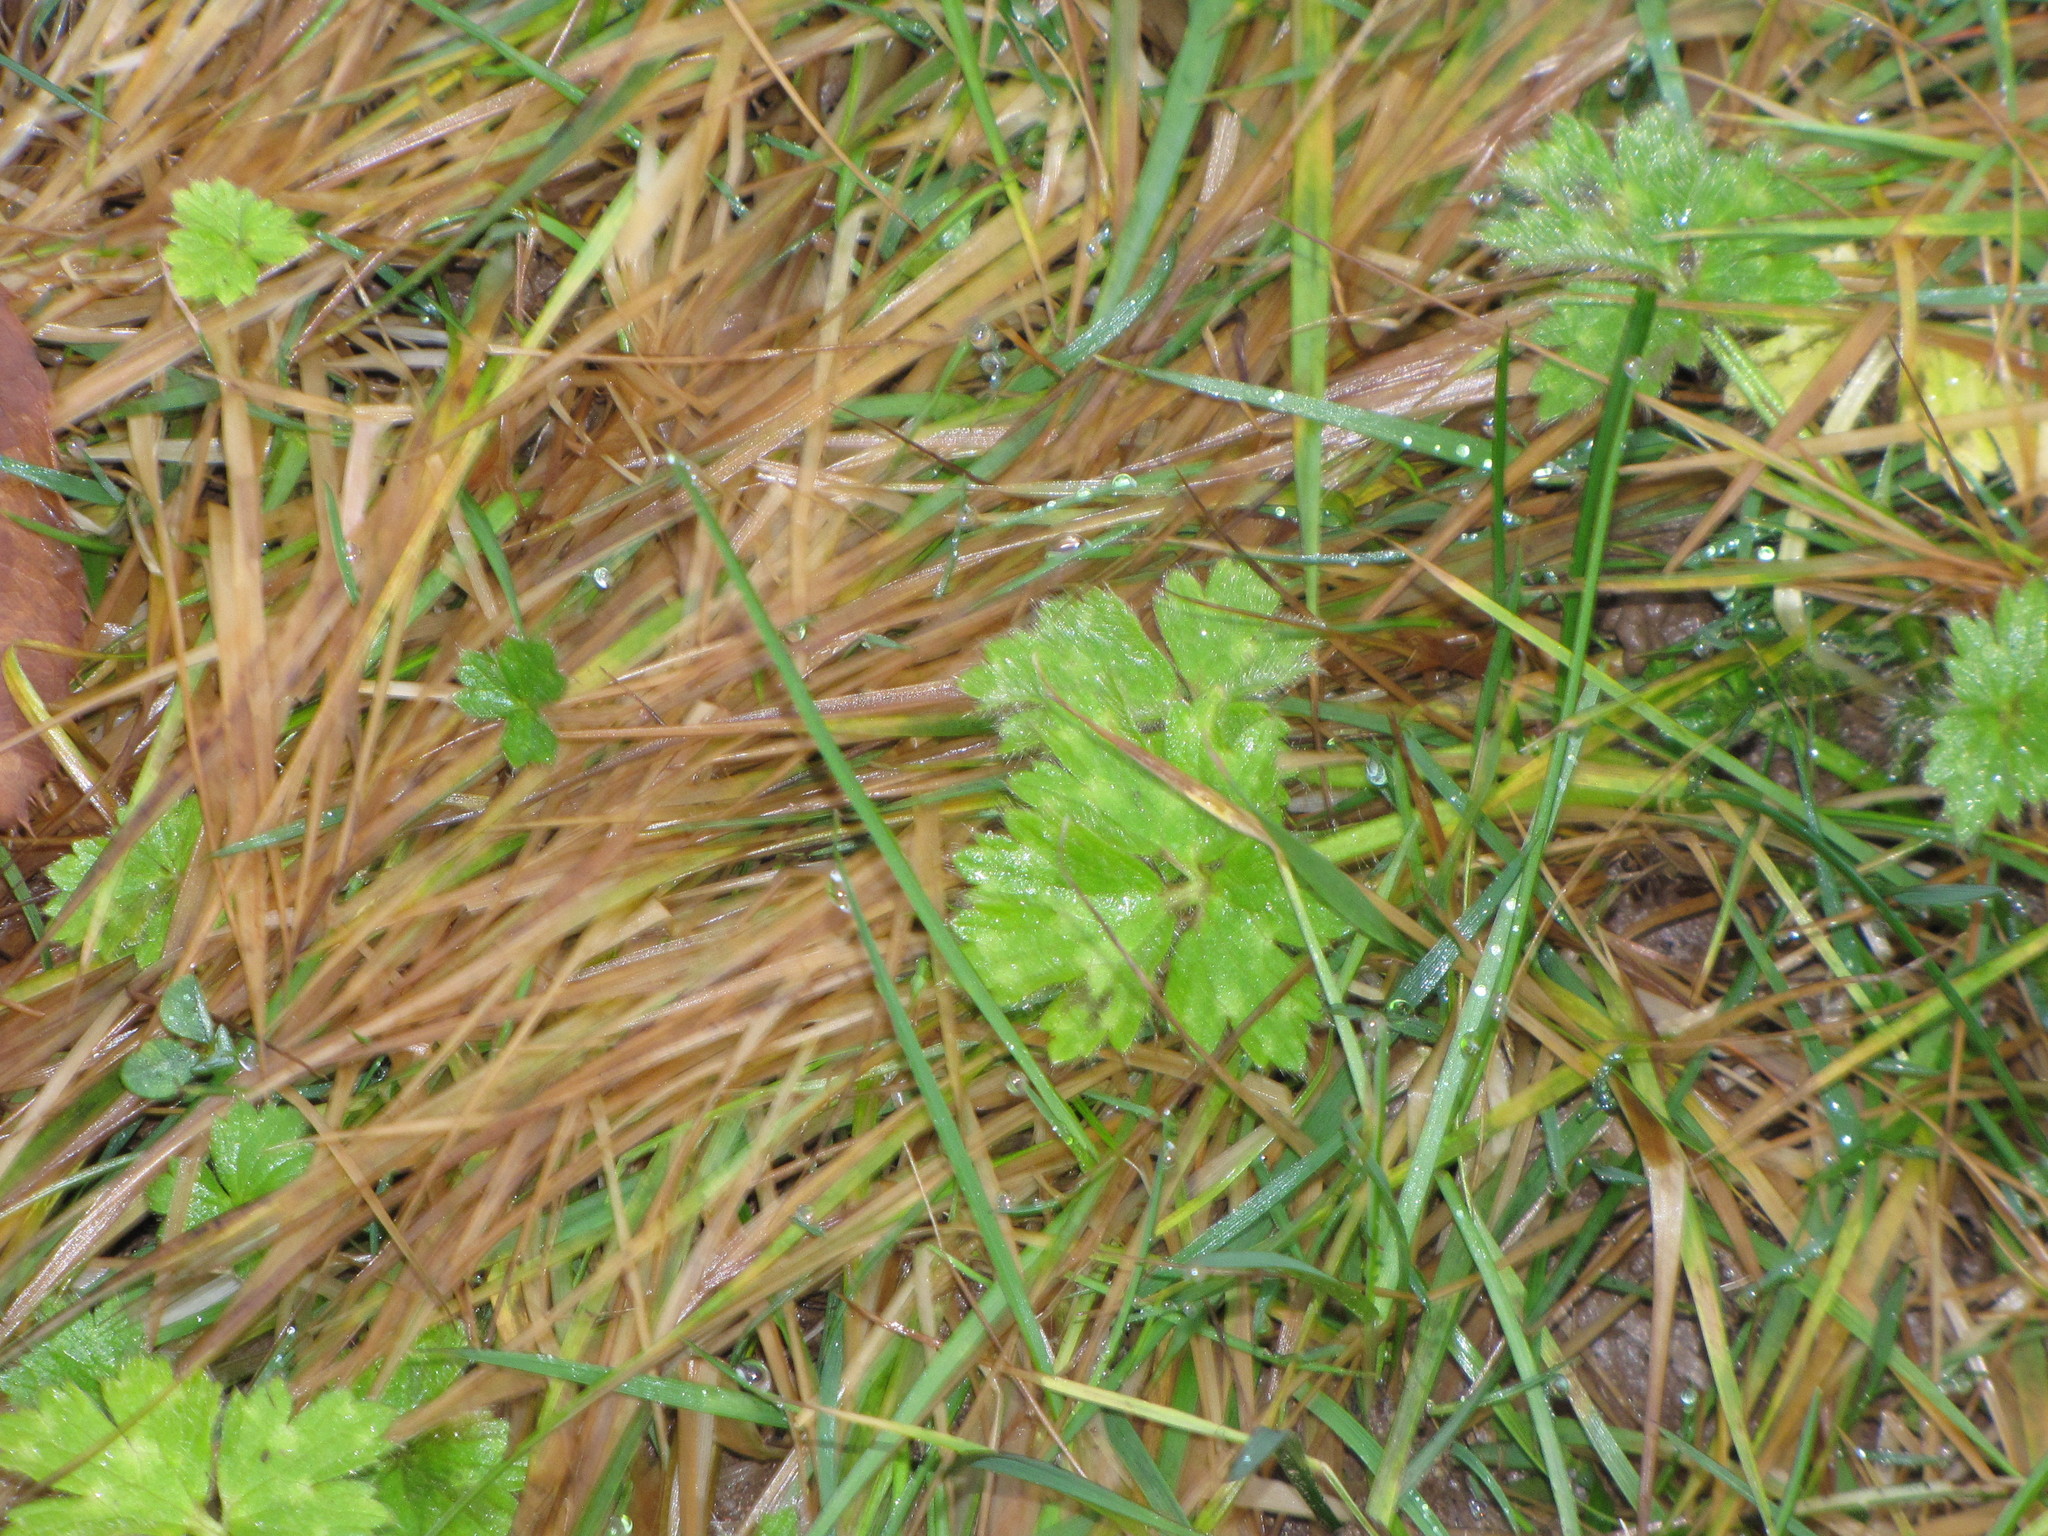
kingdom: Plantae
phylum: Tracheophyta
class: Magnoliopsida
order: Ranunculales
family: Ranunculaceae
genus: Ranunculus
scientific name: Ranunculus repens
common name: Creeping buttercup
